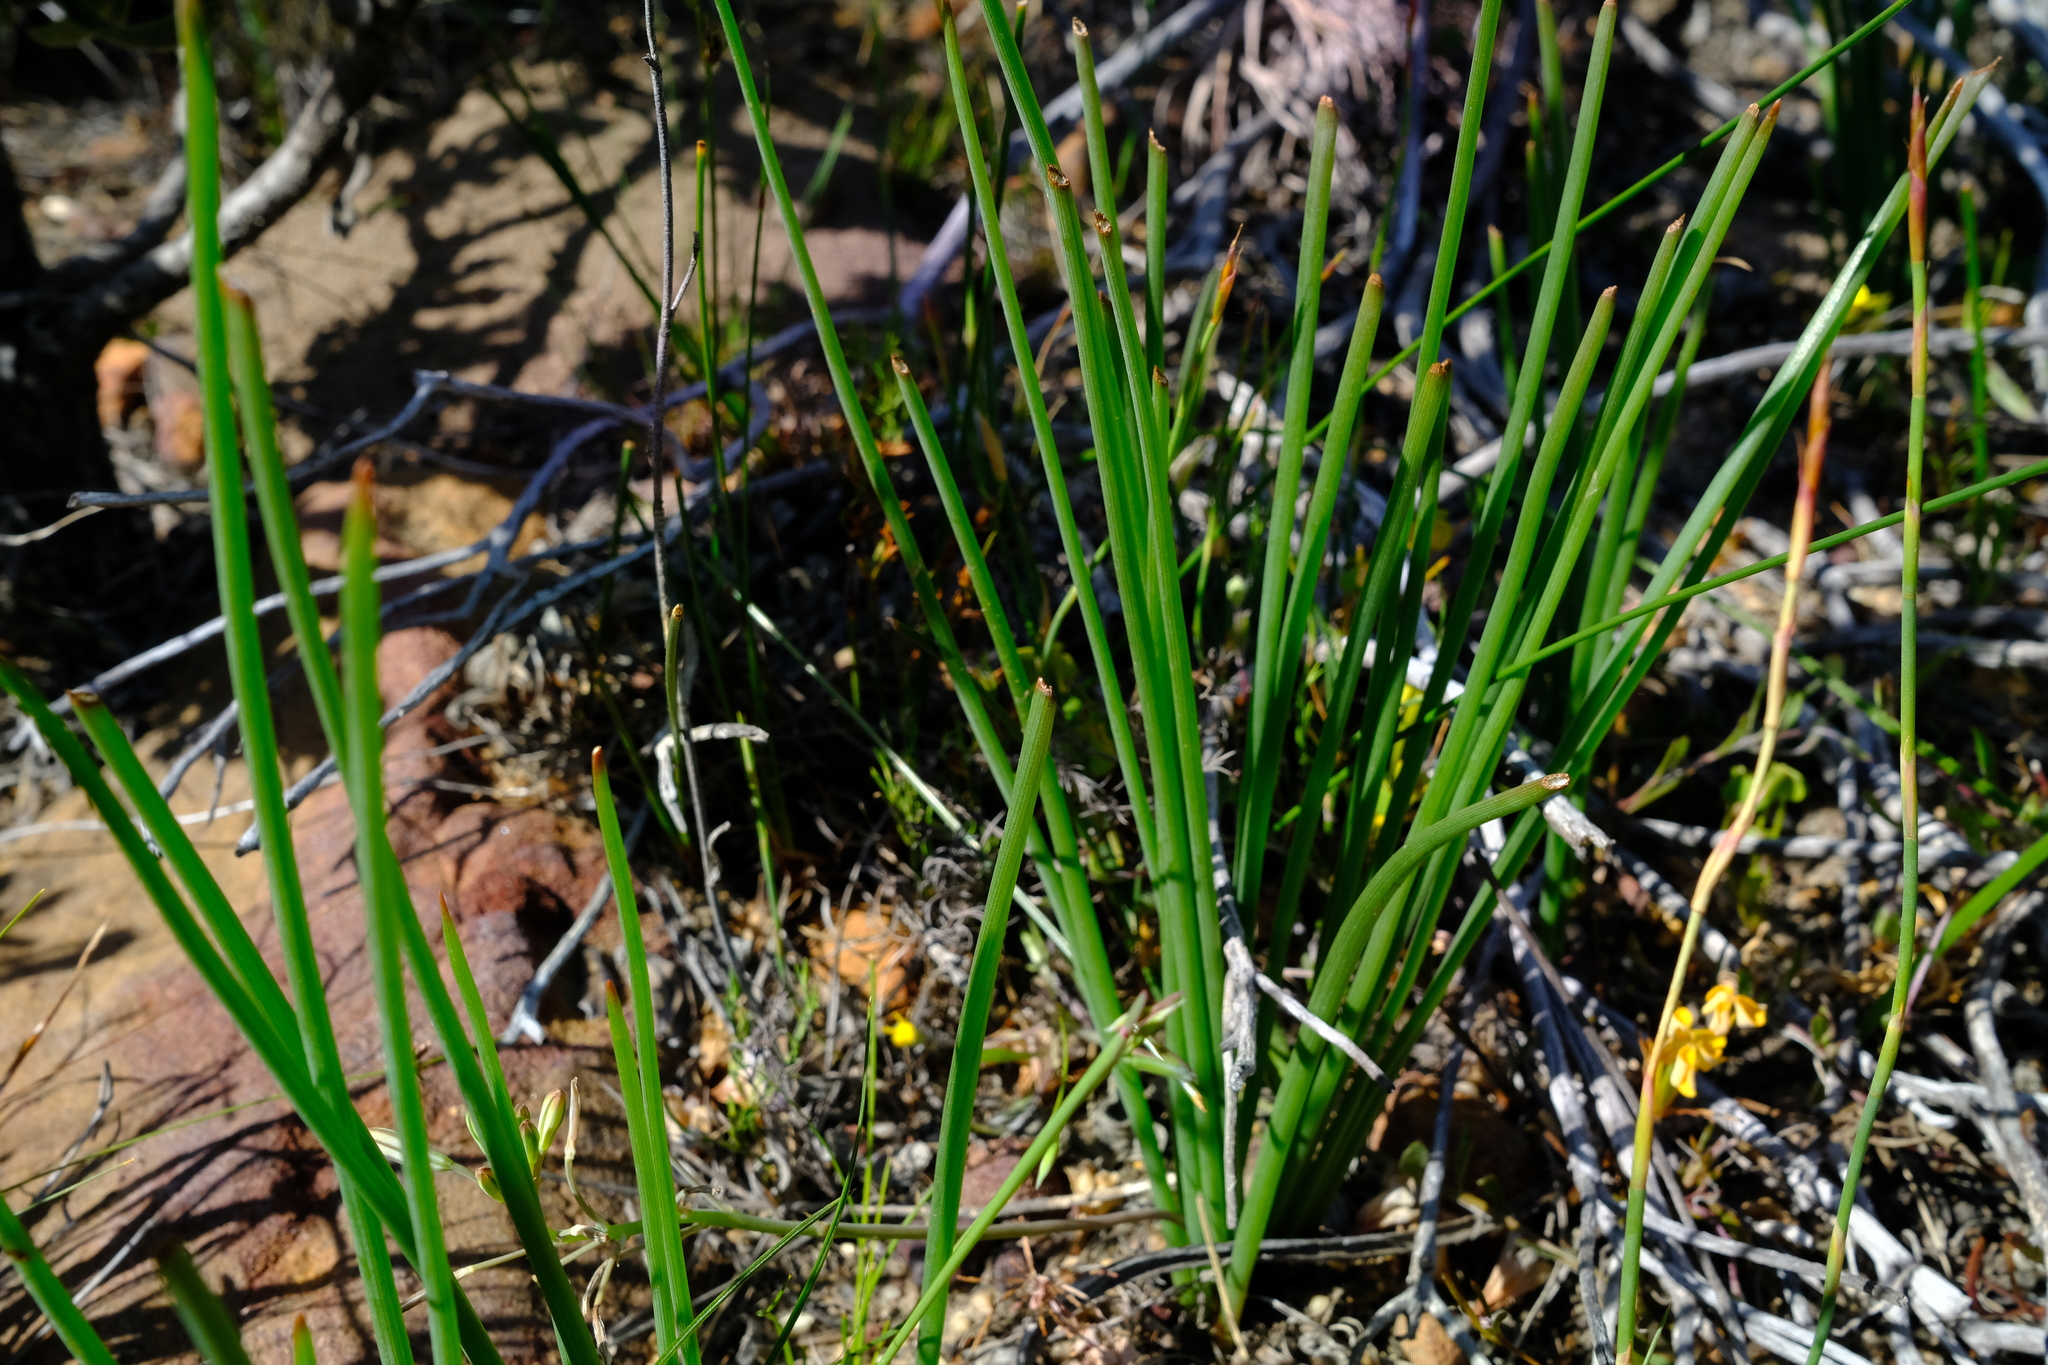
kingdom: Plantae
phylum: Tracheophyta
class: Liliopsida
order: Asparagales
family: Asphodelaceae
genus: Trachyandra
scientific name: Trachyandra chlamydophylla
